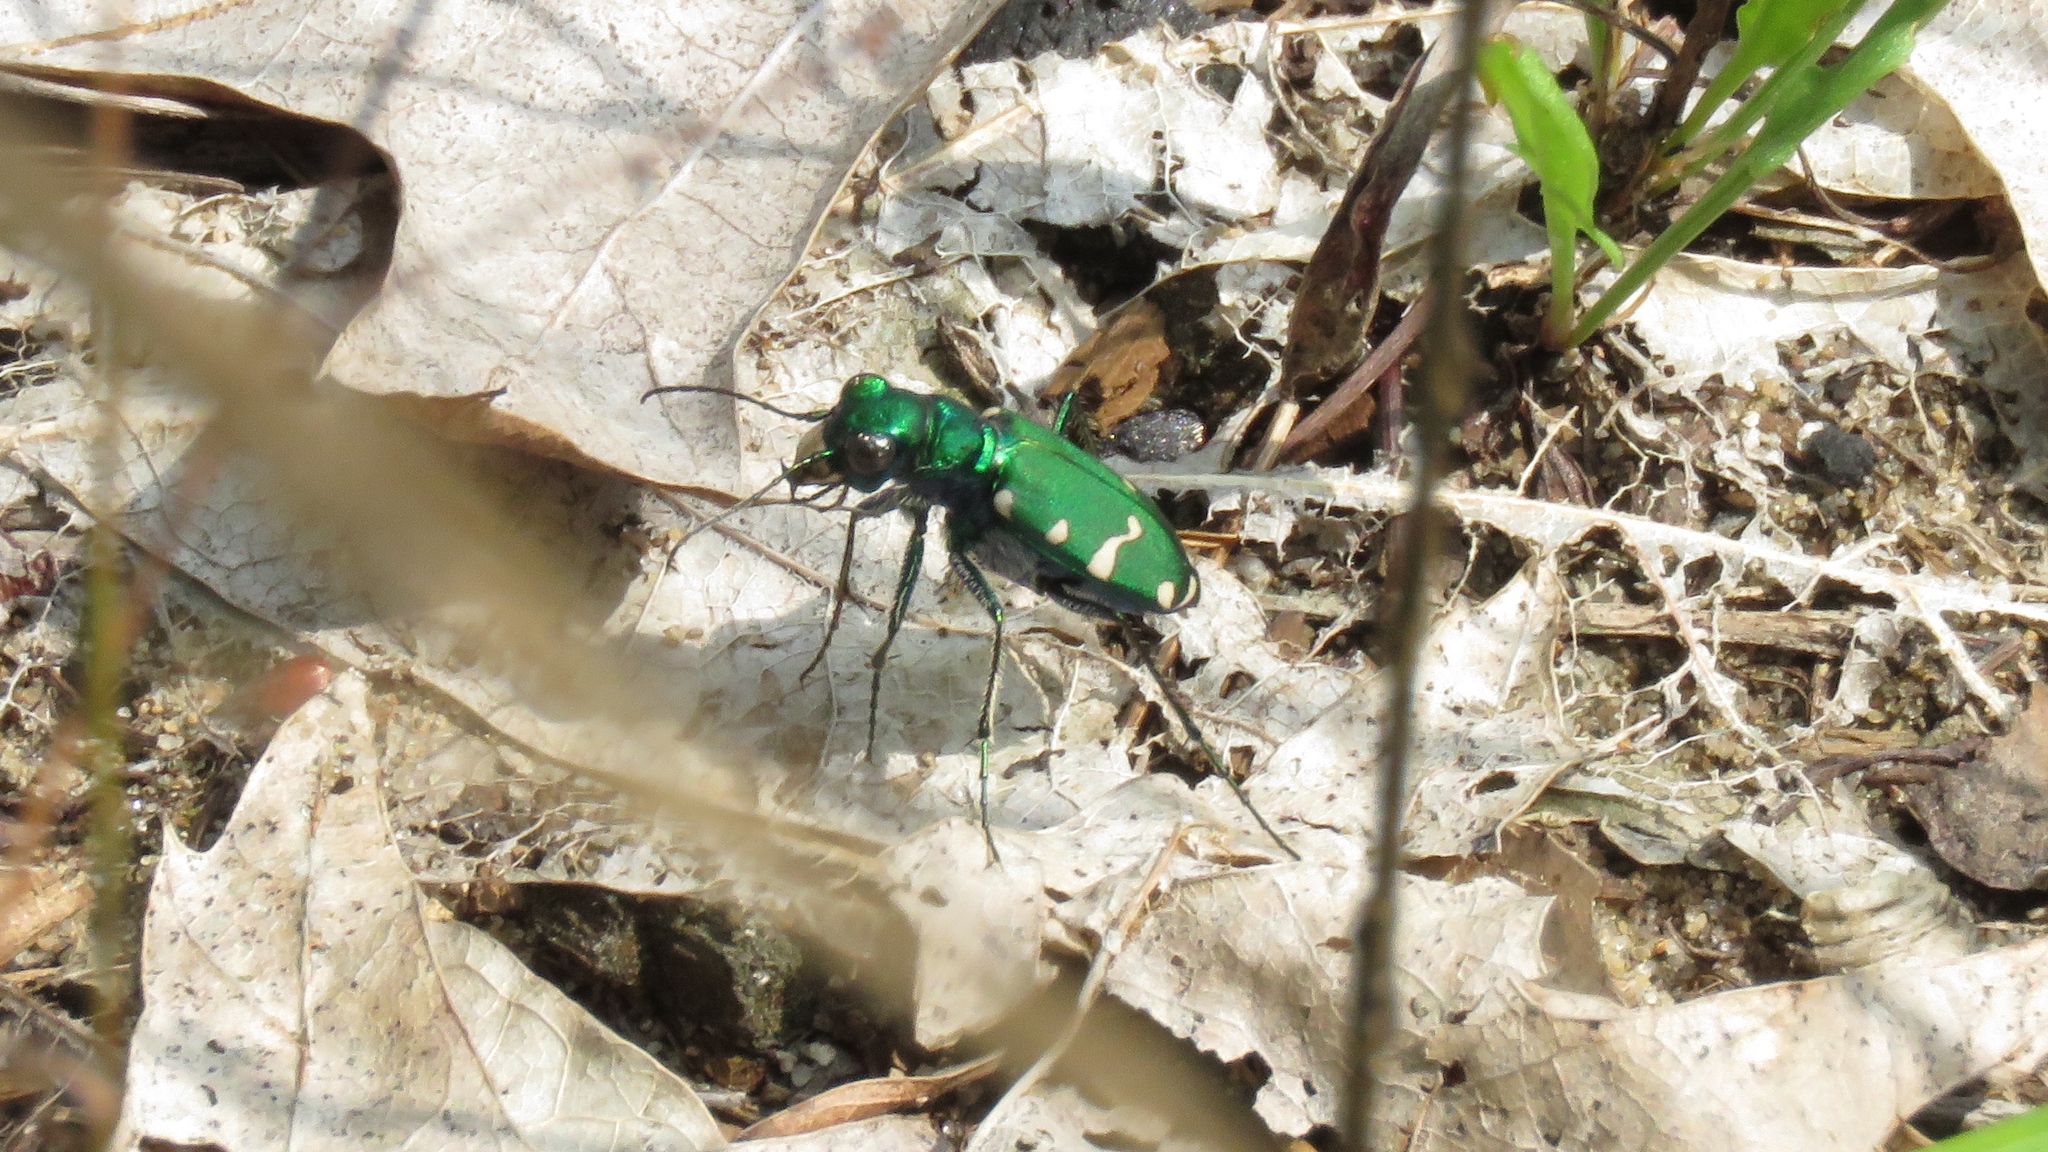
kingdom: Animalia
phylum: Arthropoda
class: Insecta
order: Coleoptera
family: Carabidae
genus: Cicindela
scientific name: Cicindela patruela
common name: Northern barrens tiger beetle
